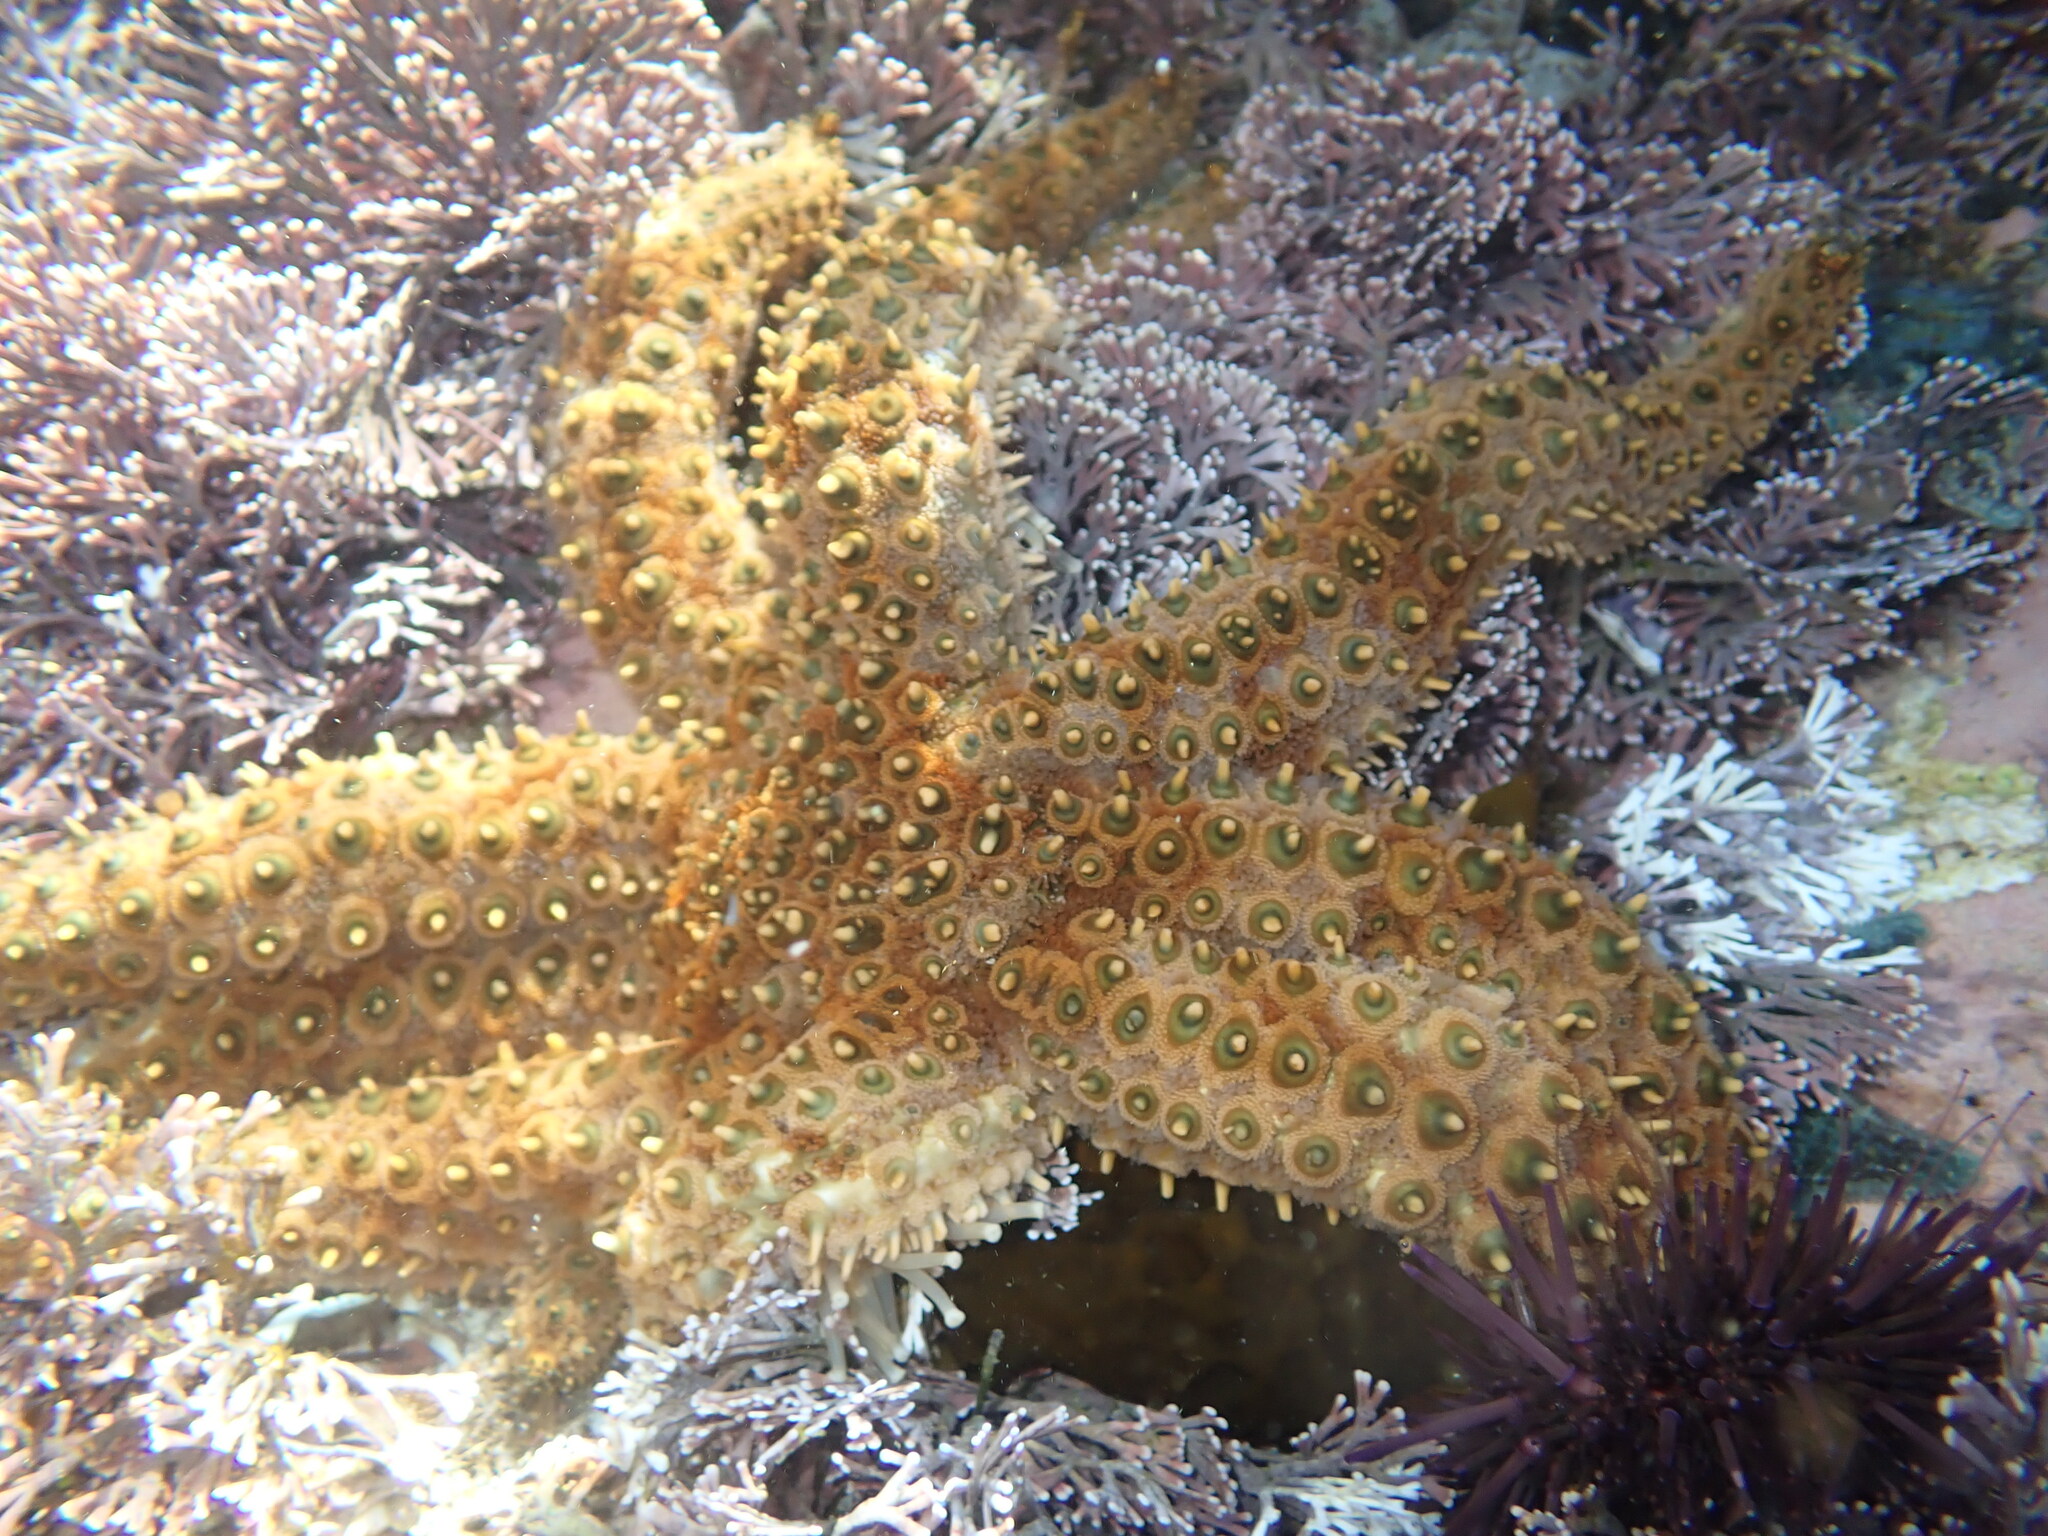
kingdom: Animalia
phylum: Echinodermata
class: Asteroidea
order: Forcipulatida
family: Asteriidae
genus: Coscinasterias
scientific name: Coscinasterias muricata
